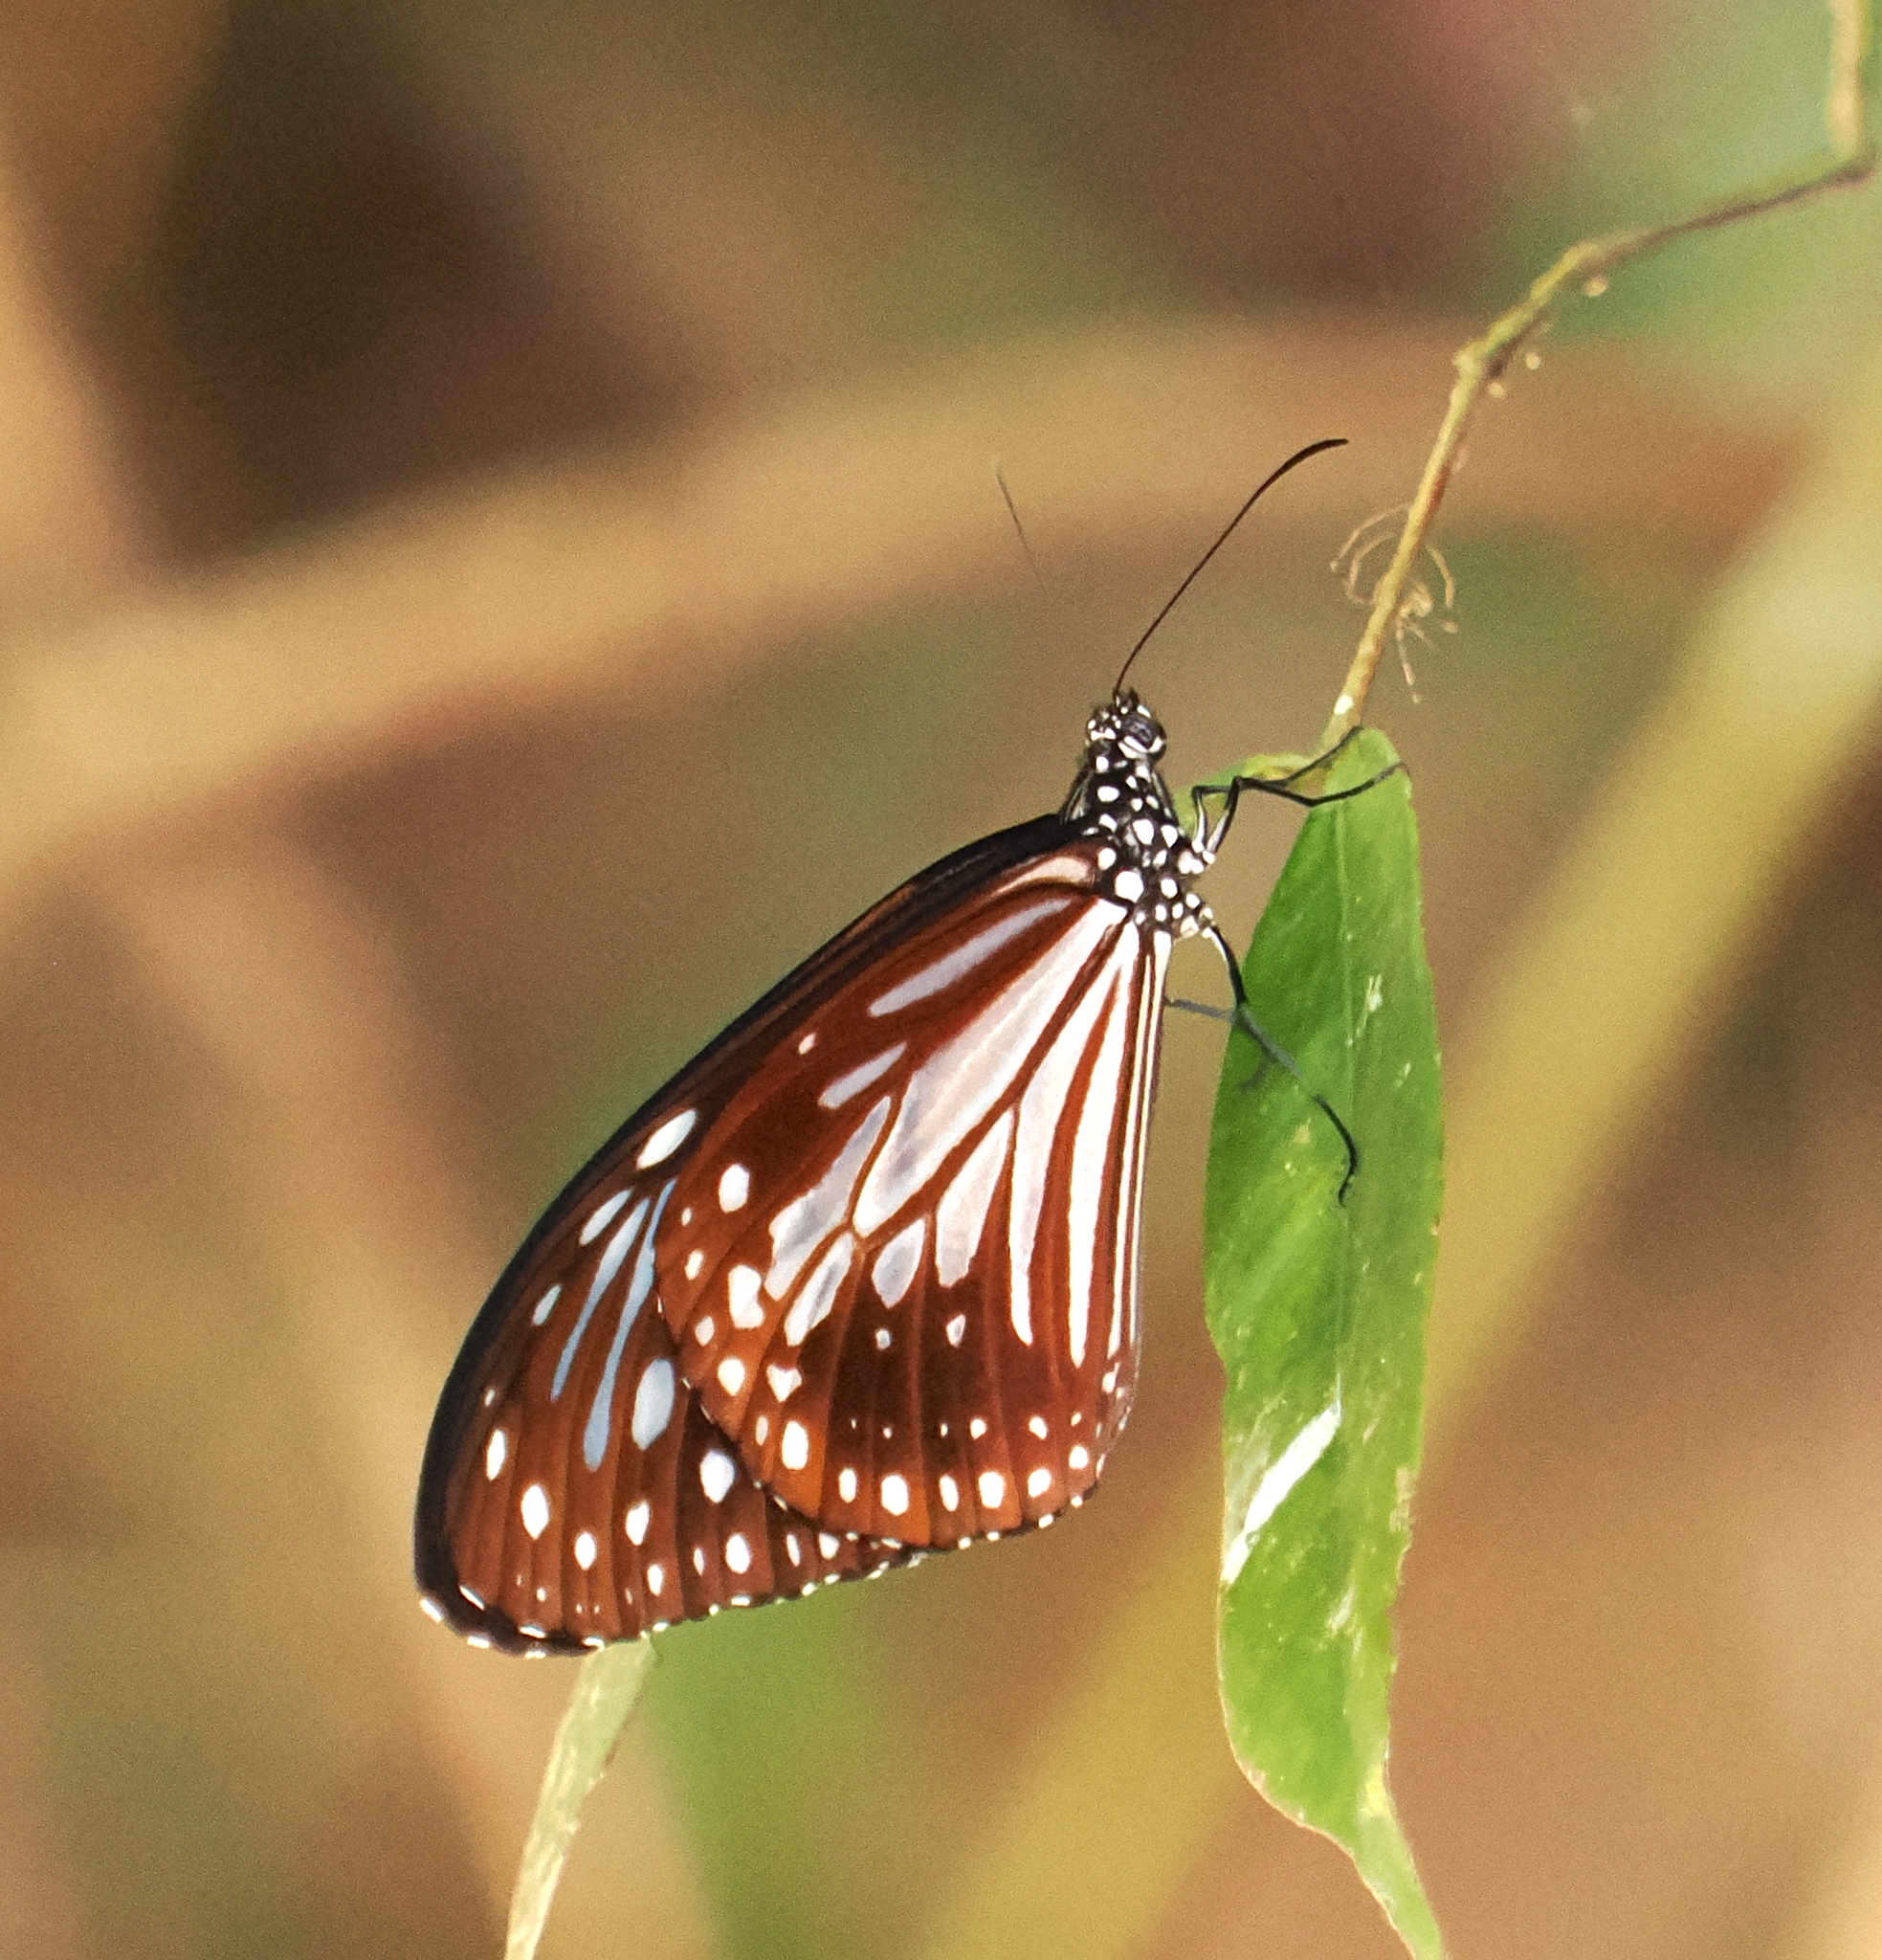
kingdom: Animalia
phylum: Arthropoda
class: Insecta
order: Lepidoptera
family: Nymphalidae
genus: Parantica
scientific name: Parantica melaneus
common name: Chocolate tiger
